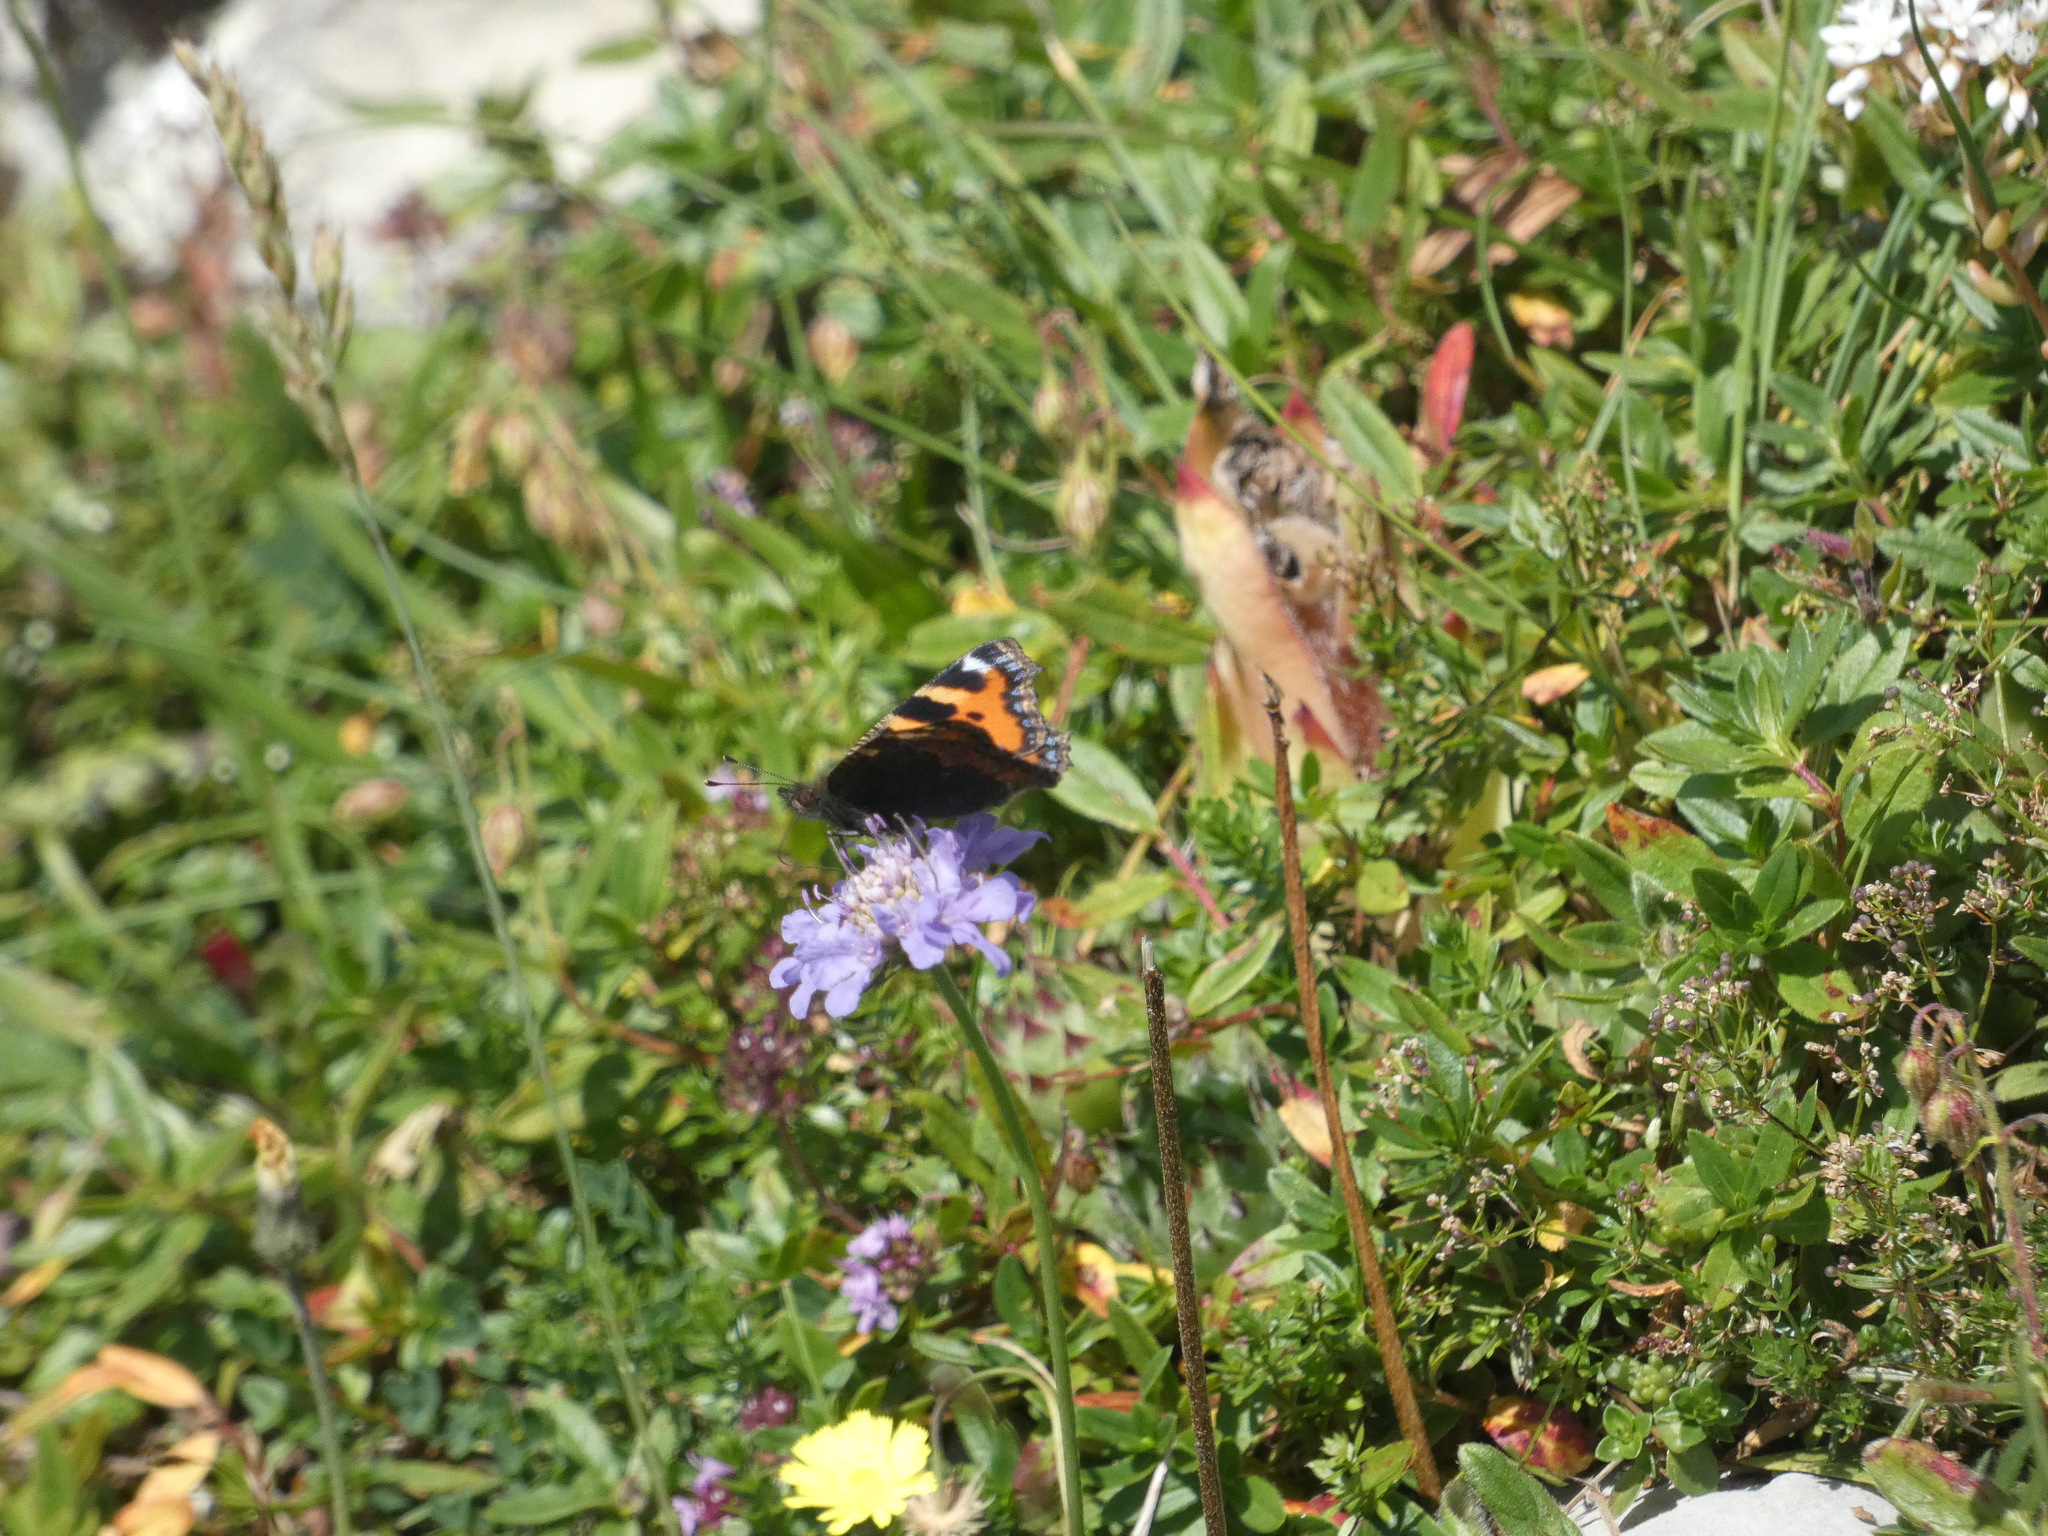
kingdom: Animalia
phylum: Arthropoda
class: Insecta
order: Lepidoptera
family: Nymphalidae
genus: Aglais
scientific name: Aglais urticae
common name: Small tortoiseshell
